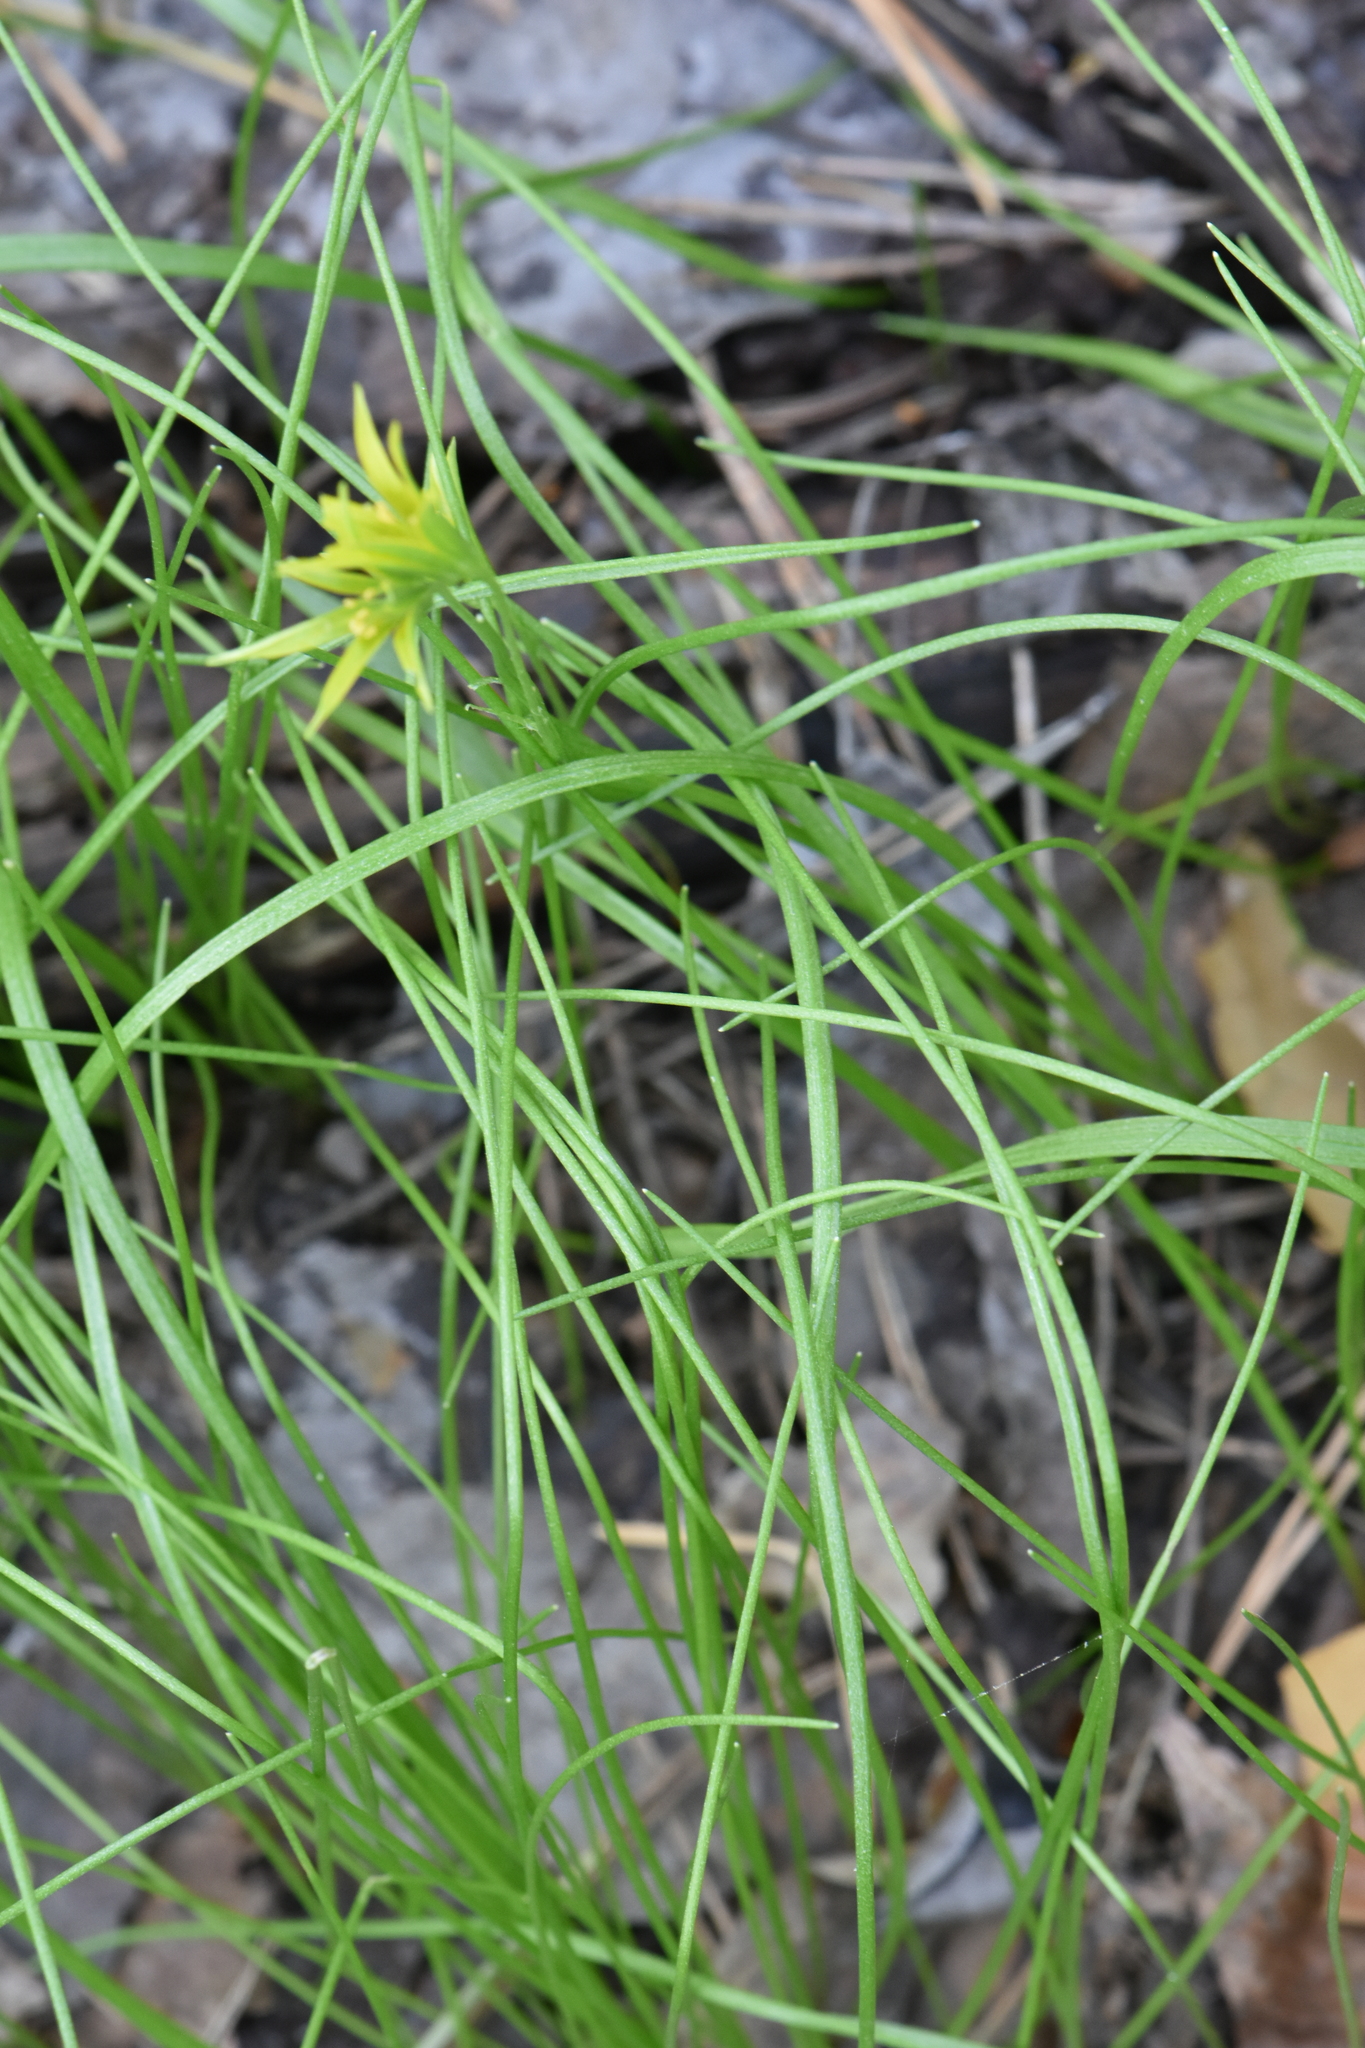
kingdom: Plantae
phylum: Tracheophyta
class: Liliopsida
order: Liliales
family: Liliaceae
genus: Gagea
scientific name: Gagea minima
